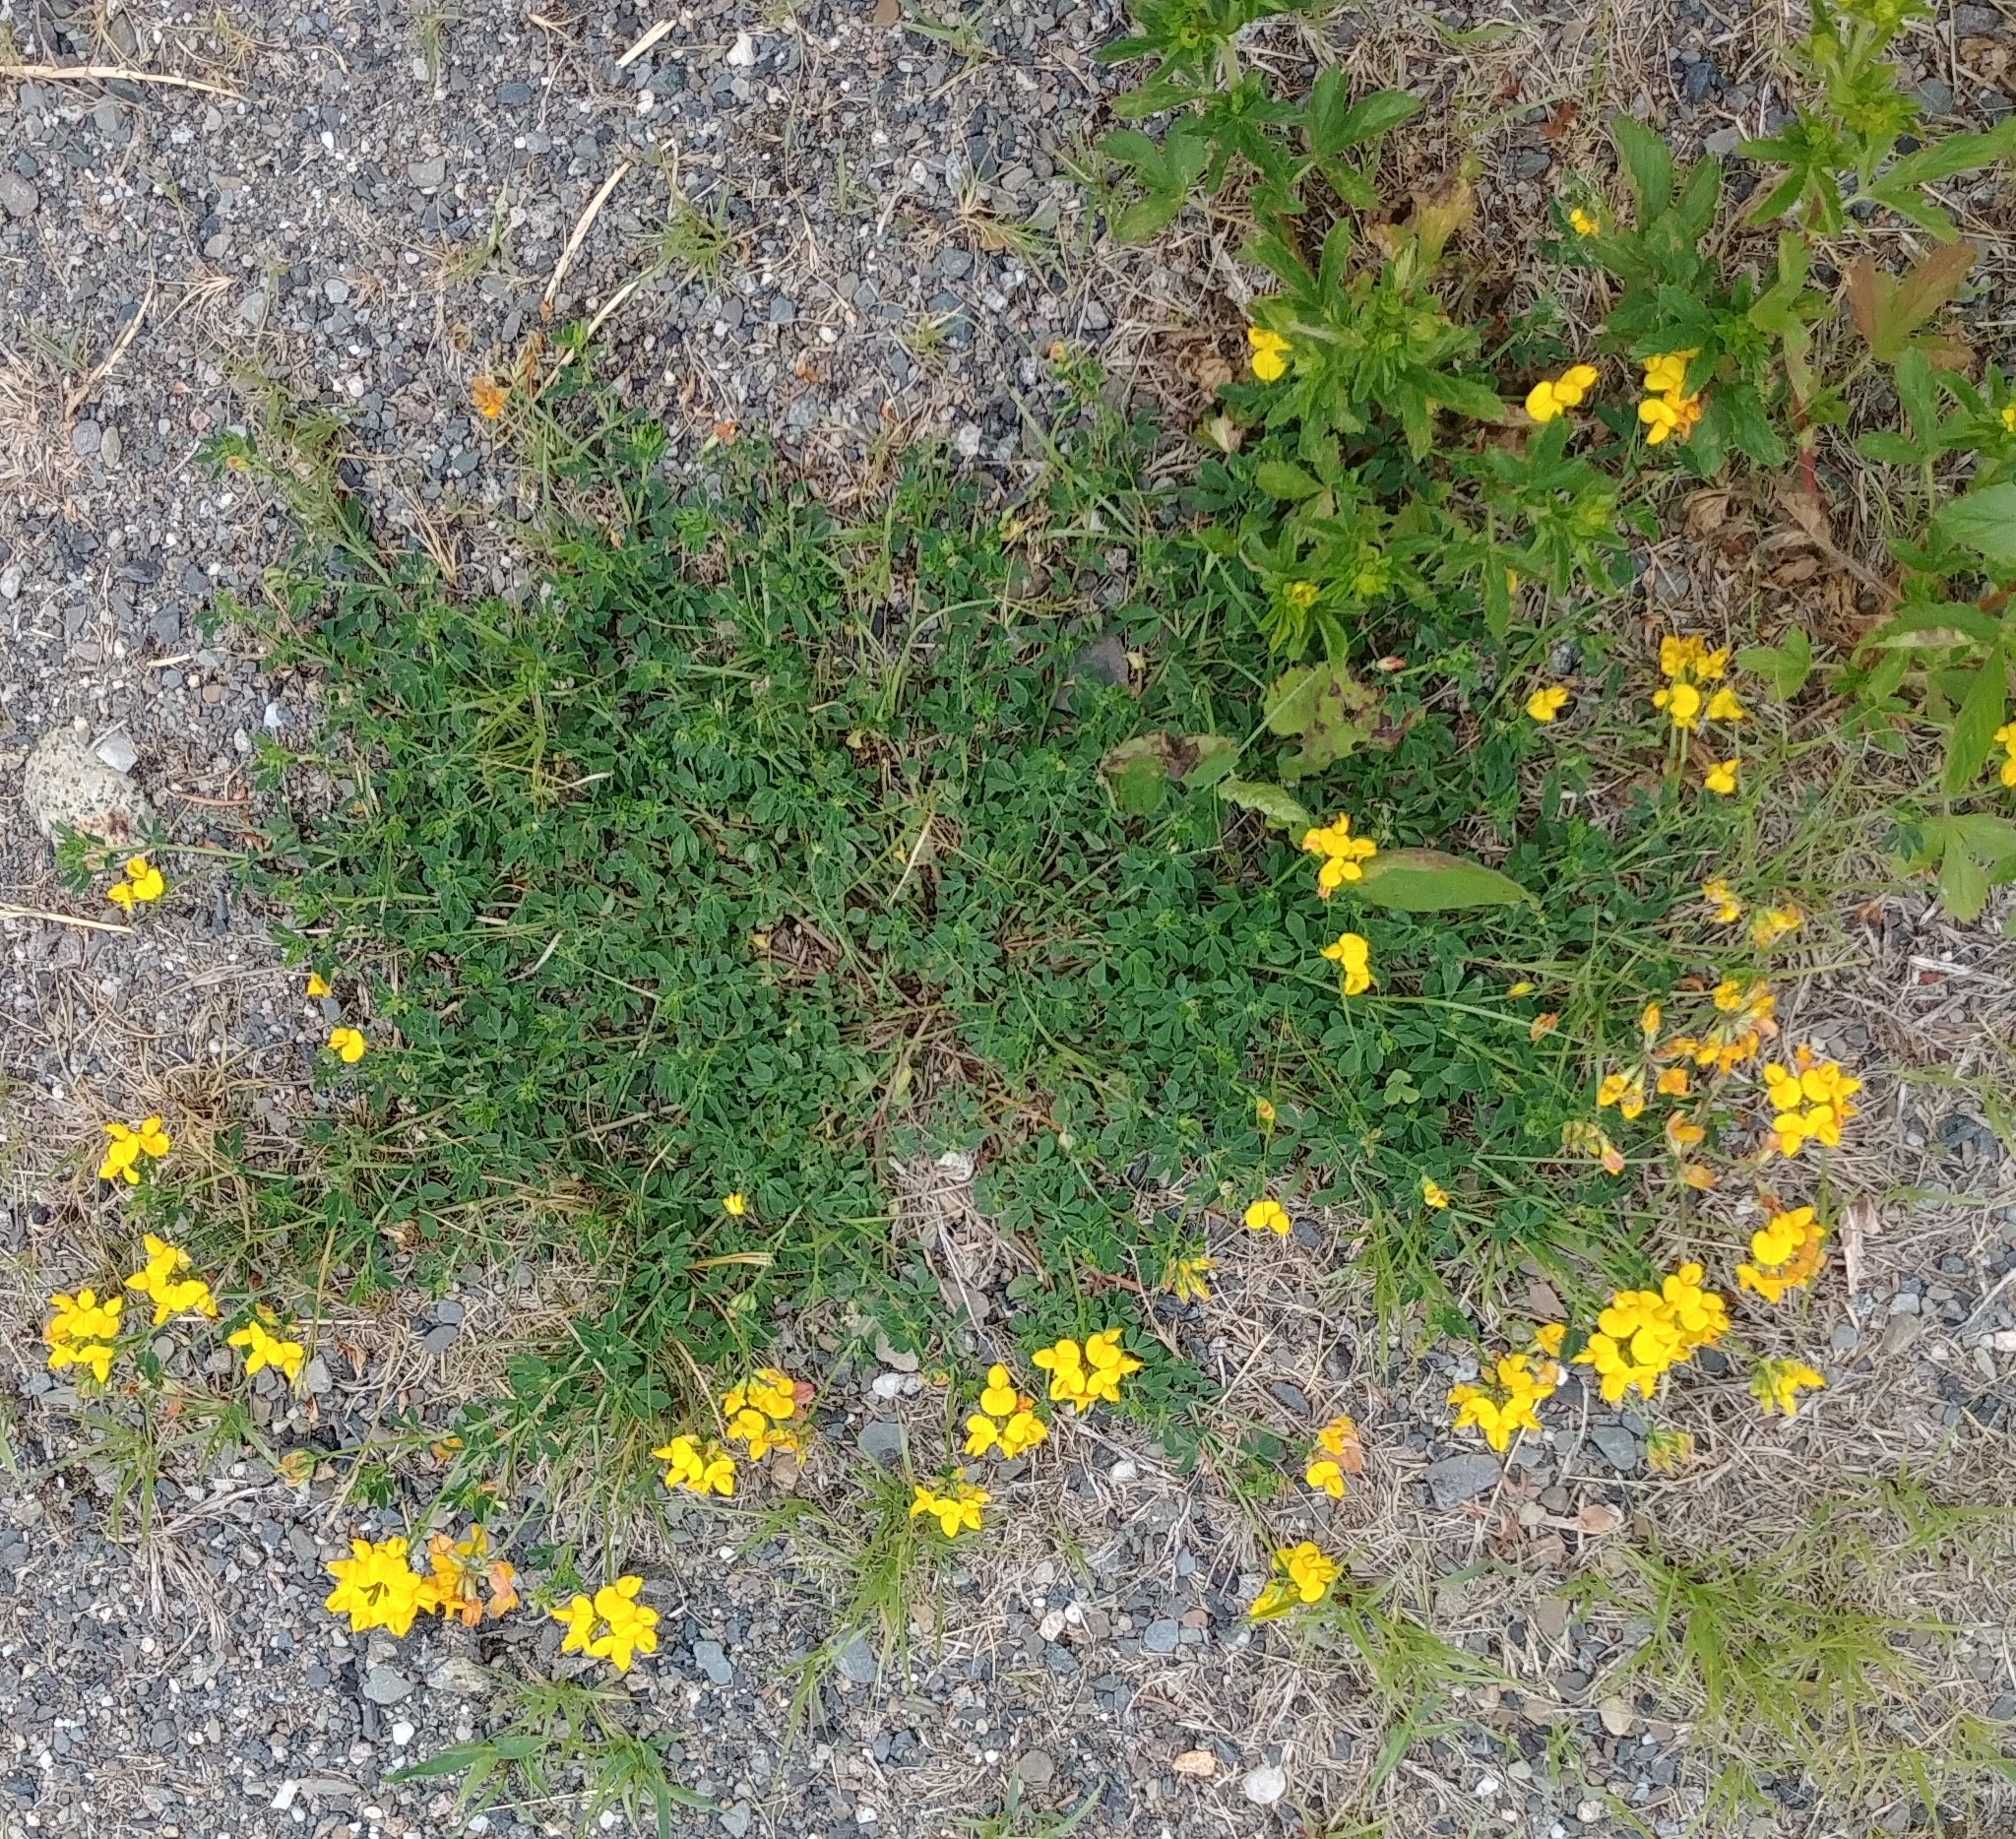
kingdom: Plantae
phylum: Tracheophyta
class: Magnoliopsida
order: Fabales
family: Fabaceae
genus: Lotus
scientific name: Lotus corniculatus
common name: Common bird's-foot-trefoil
